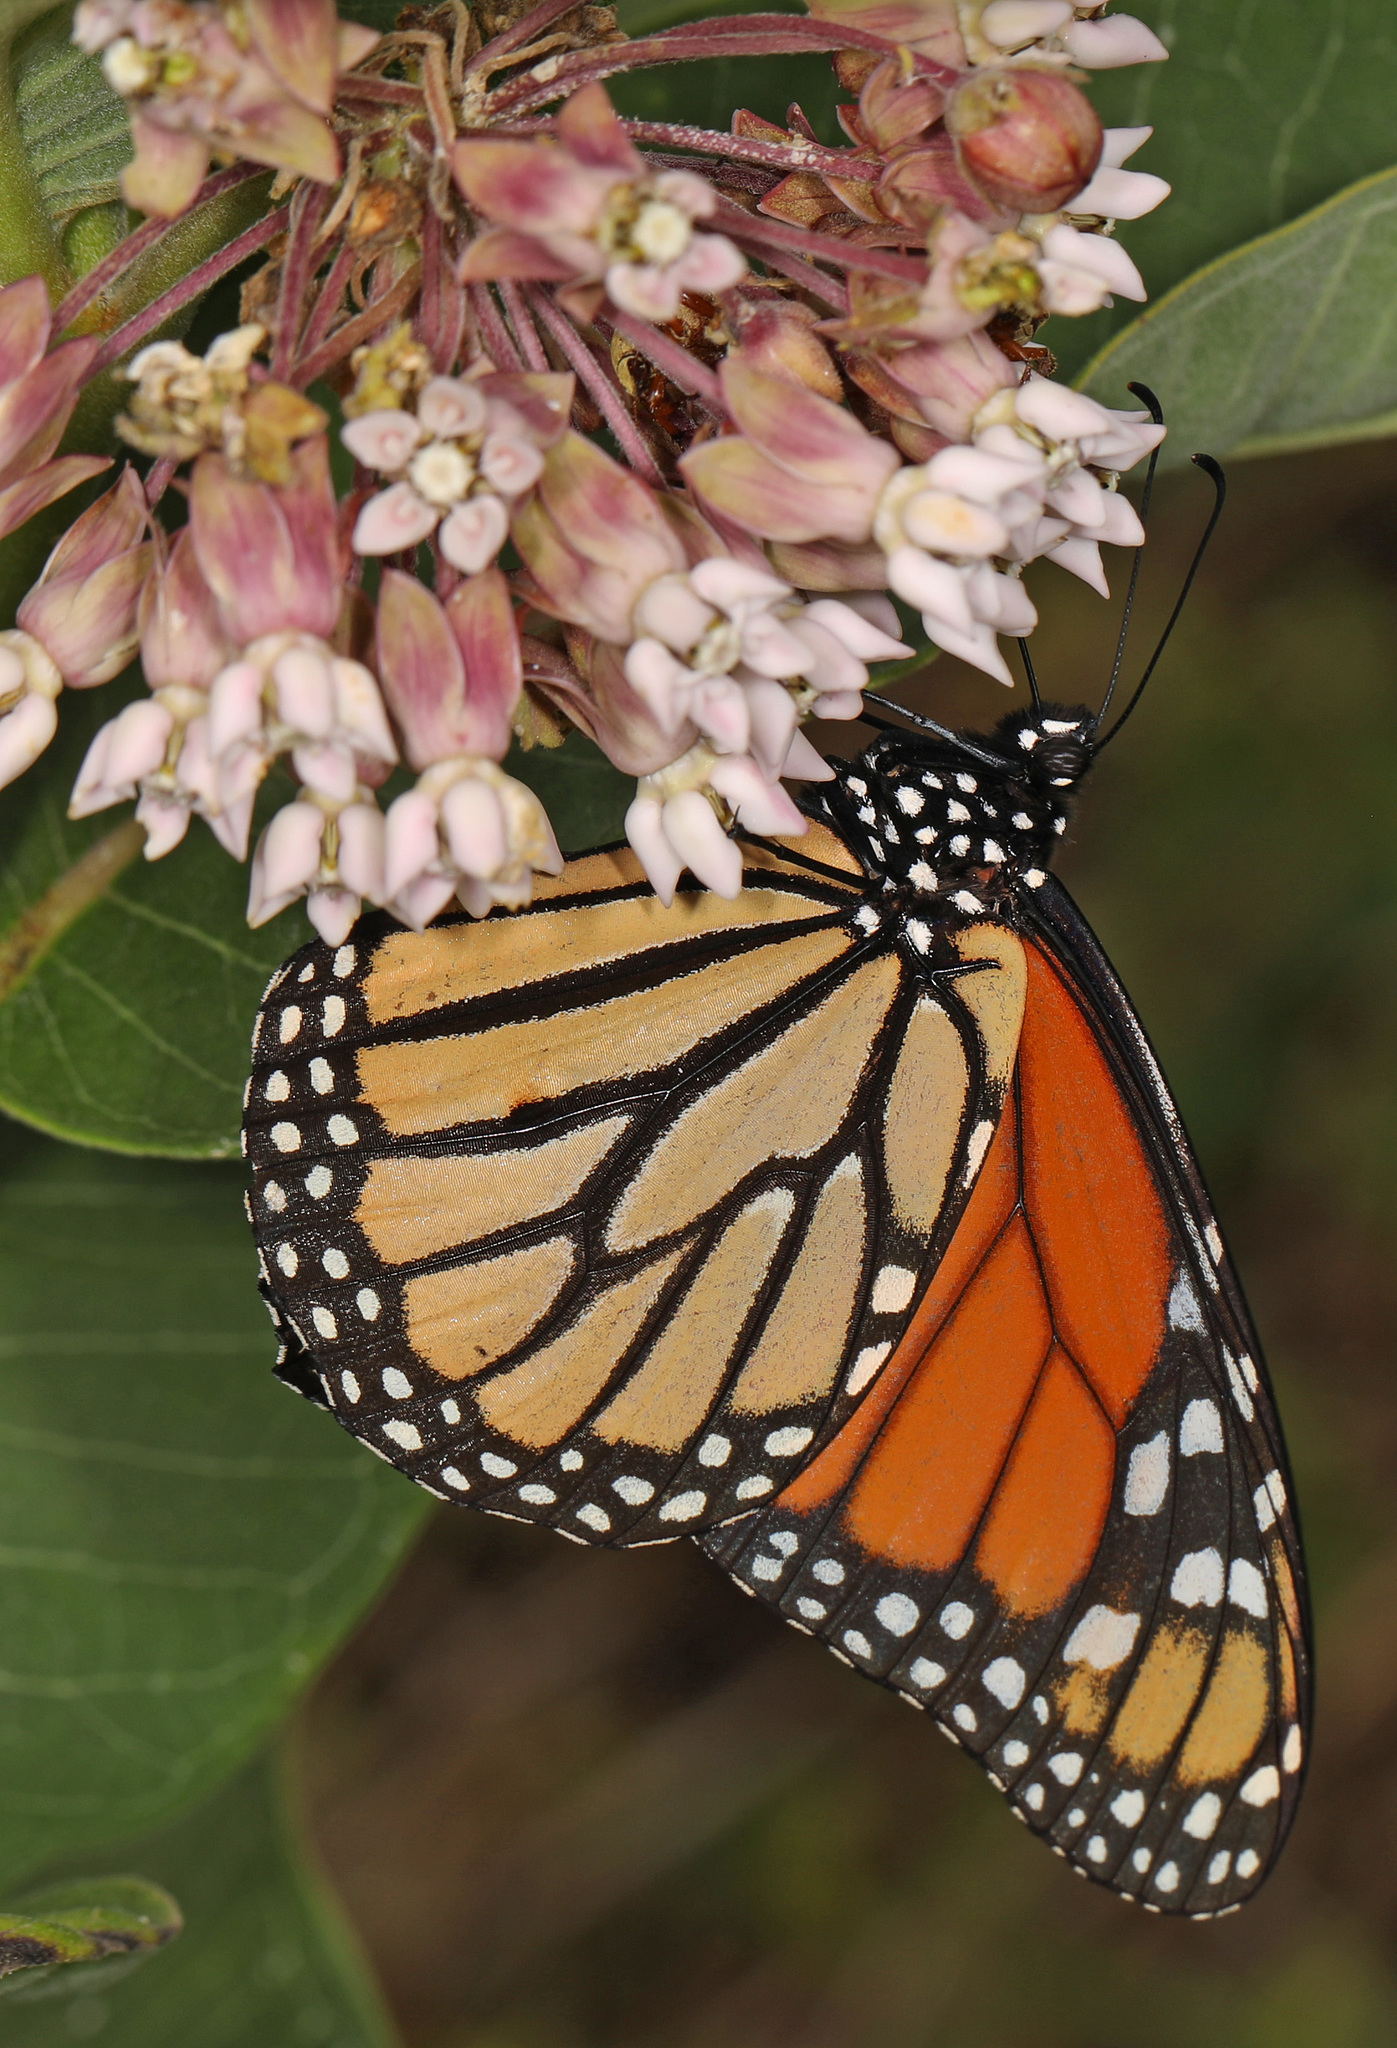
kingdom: Animalia
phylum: Arthropoda
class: Insecta
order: Lepidoptera
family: Nymphalidae
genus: Danaus
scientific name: Danaus plexippus
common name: Monarch
